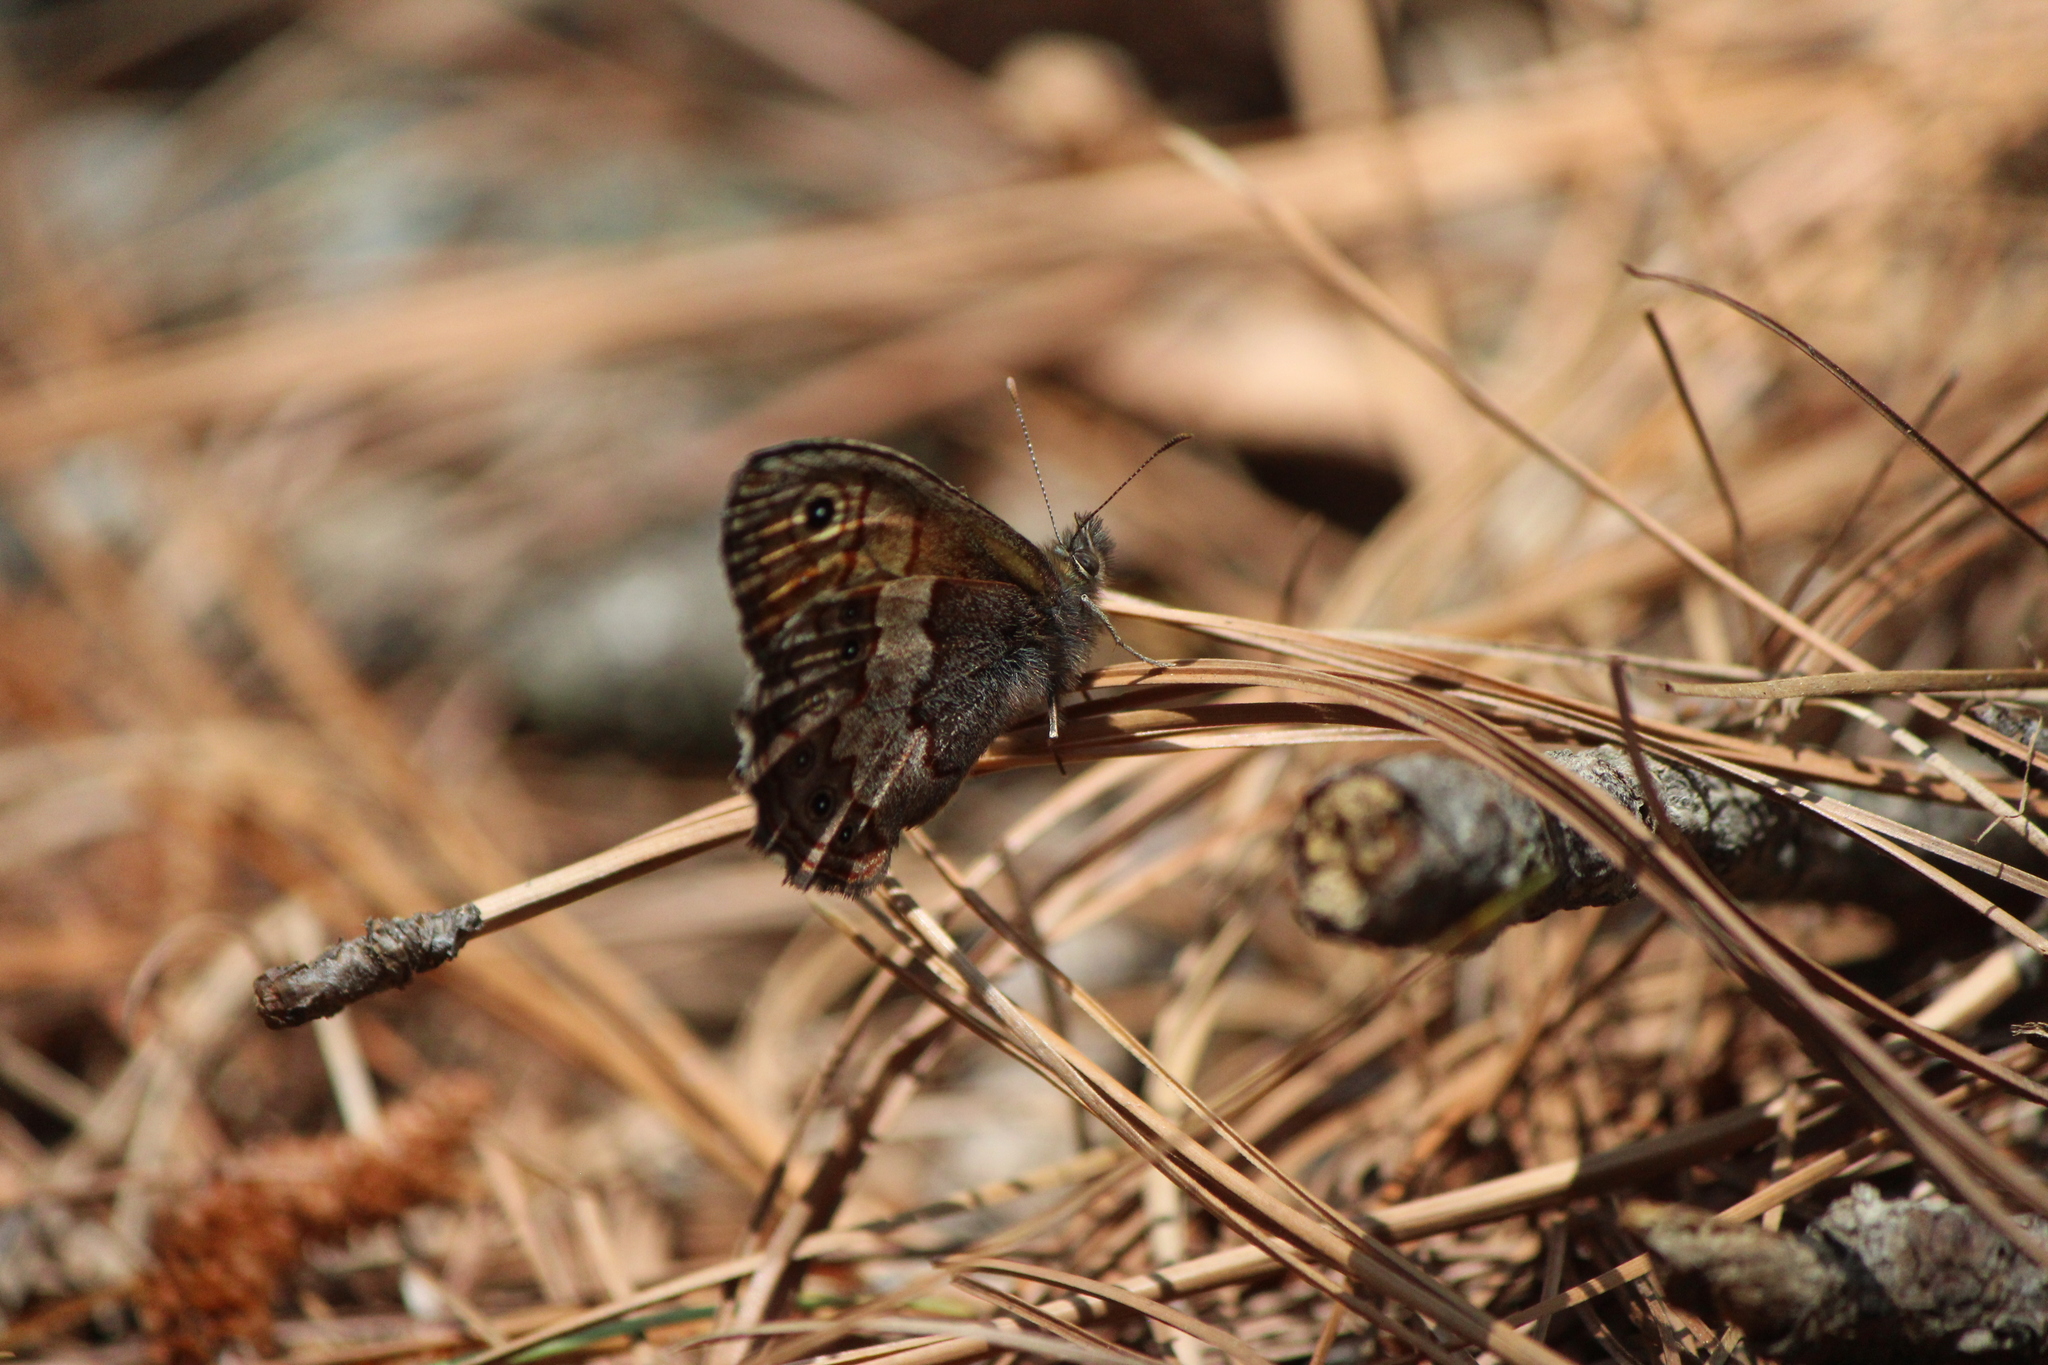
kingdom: Animalia
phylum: Arthropoda
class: Insecta
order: Lepidoptera
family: Nymphalidae
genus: Paramecera
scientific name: Paramecera xicaque
